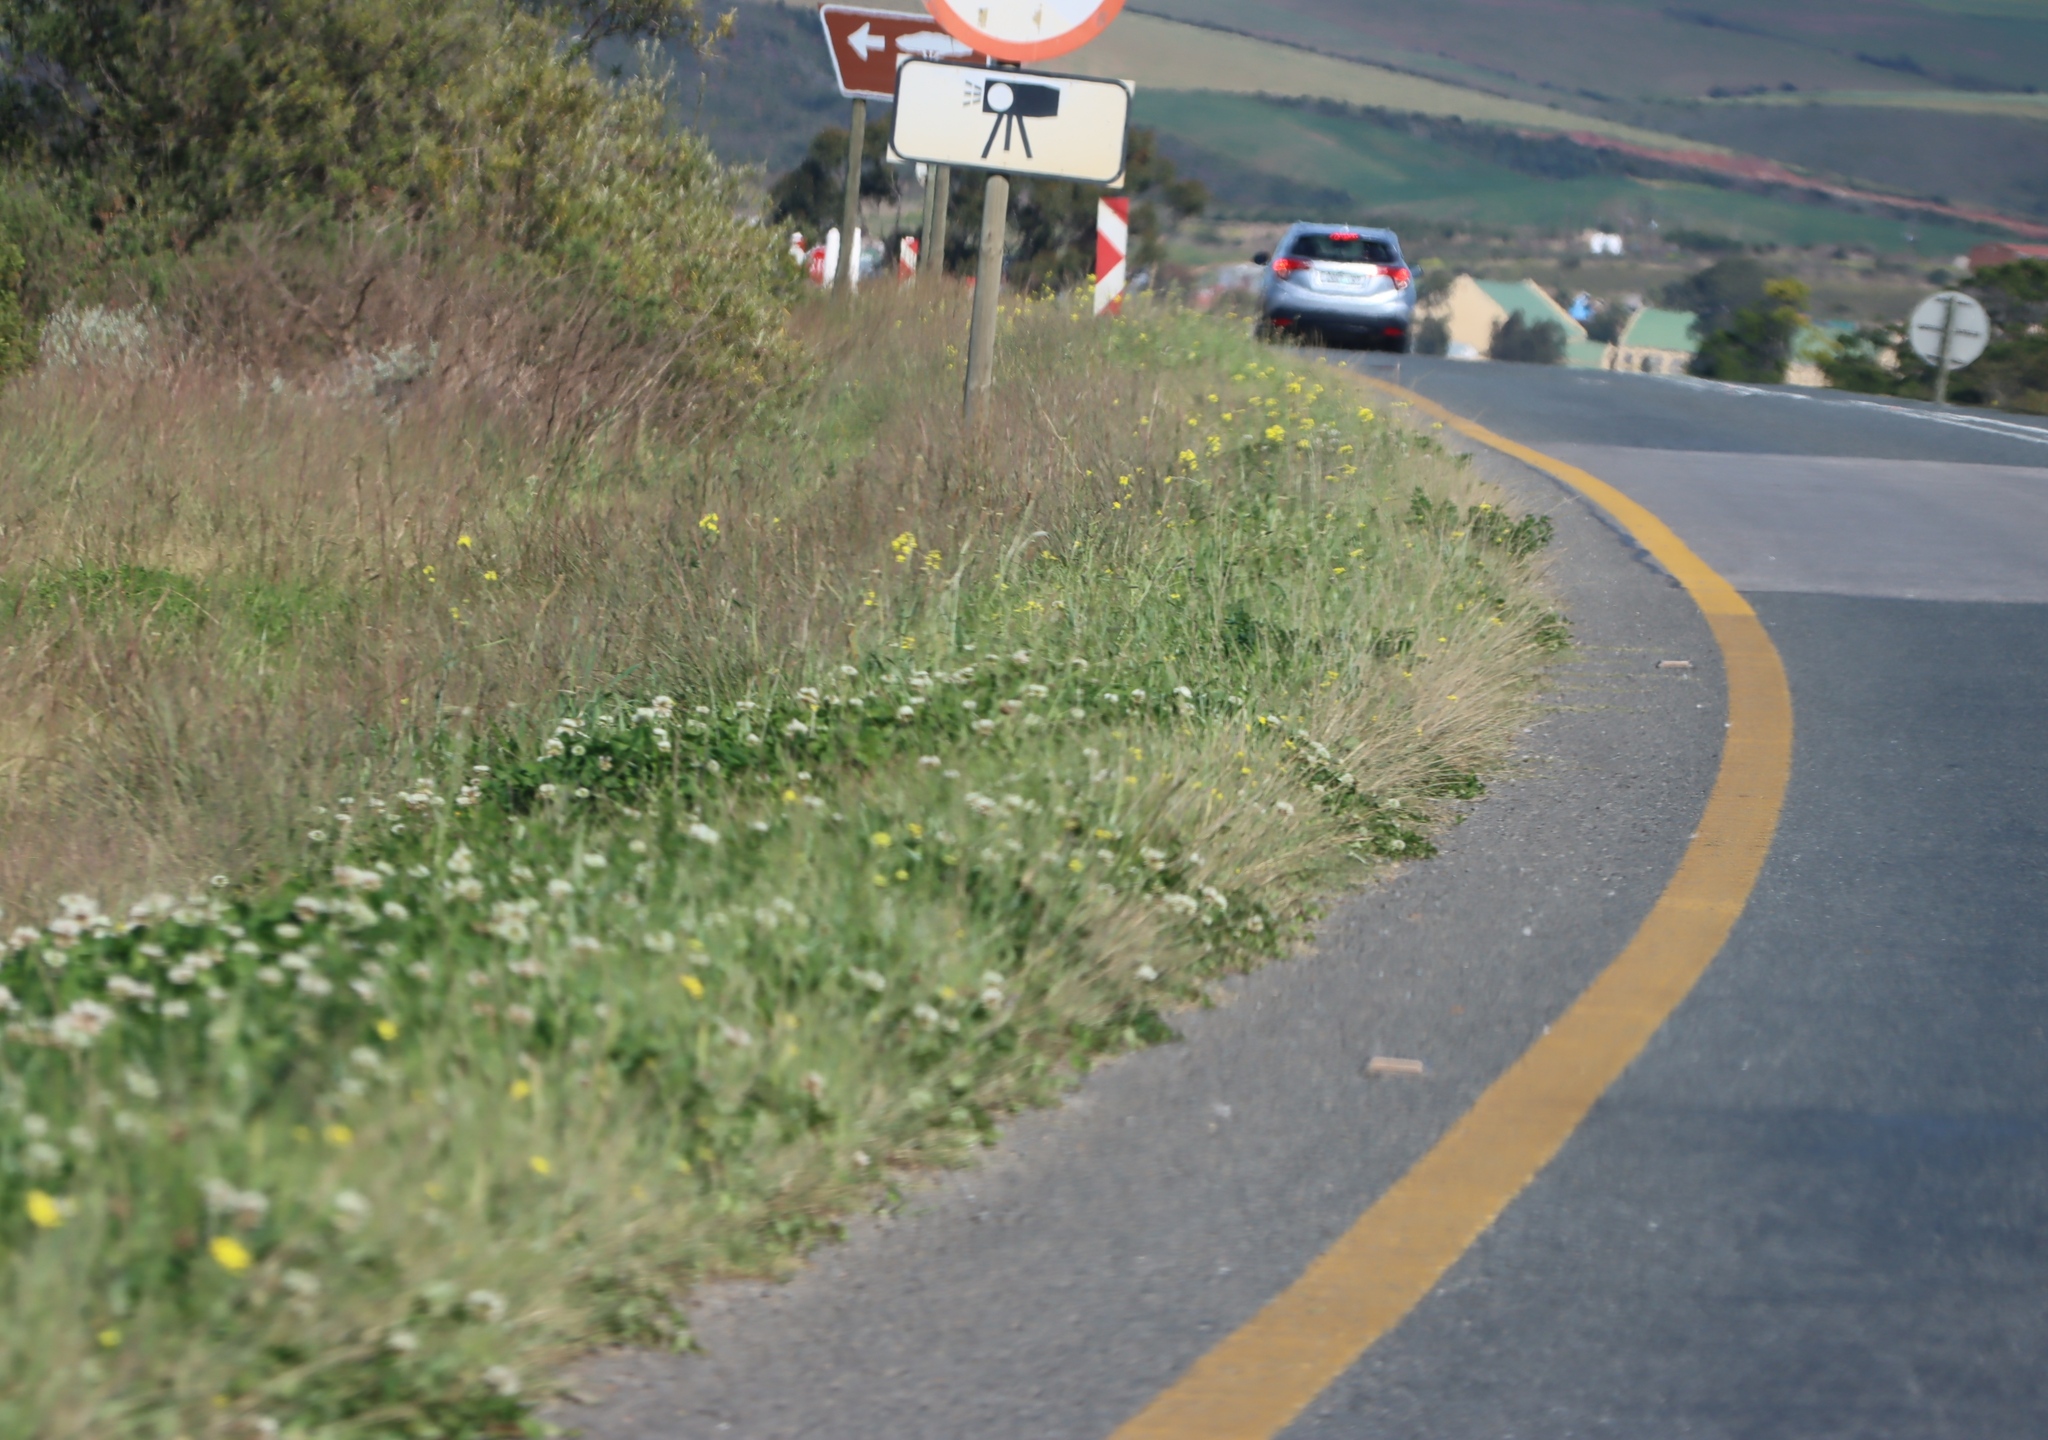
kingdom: Plantae
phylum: Tracheophyta
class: Magnoliopsida
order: Fabales
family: Fabaceae
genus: Trifolium
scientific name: Trifolium repens
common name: White clover
